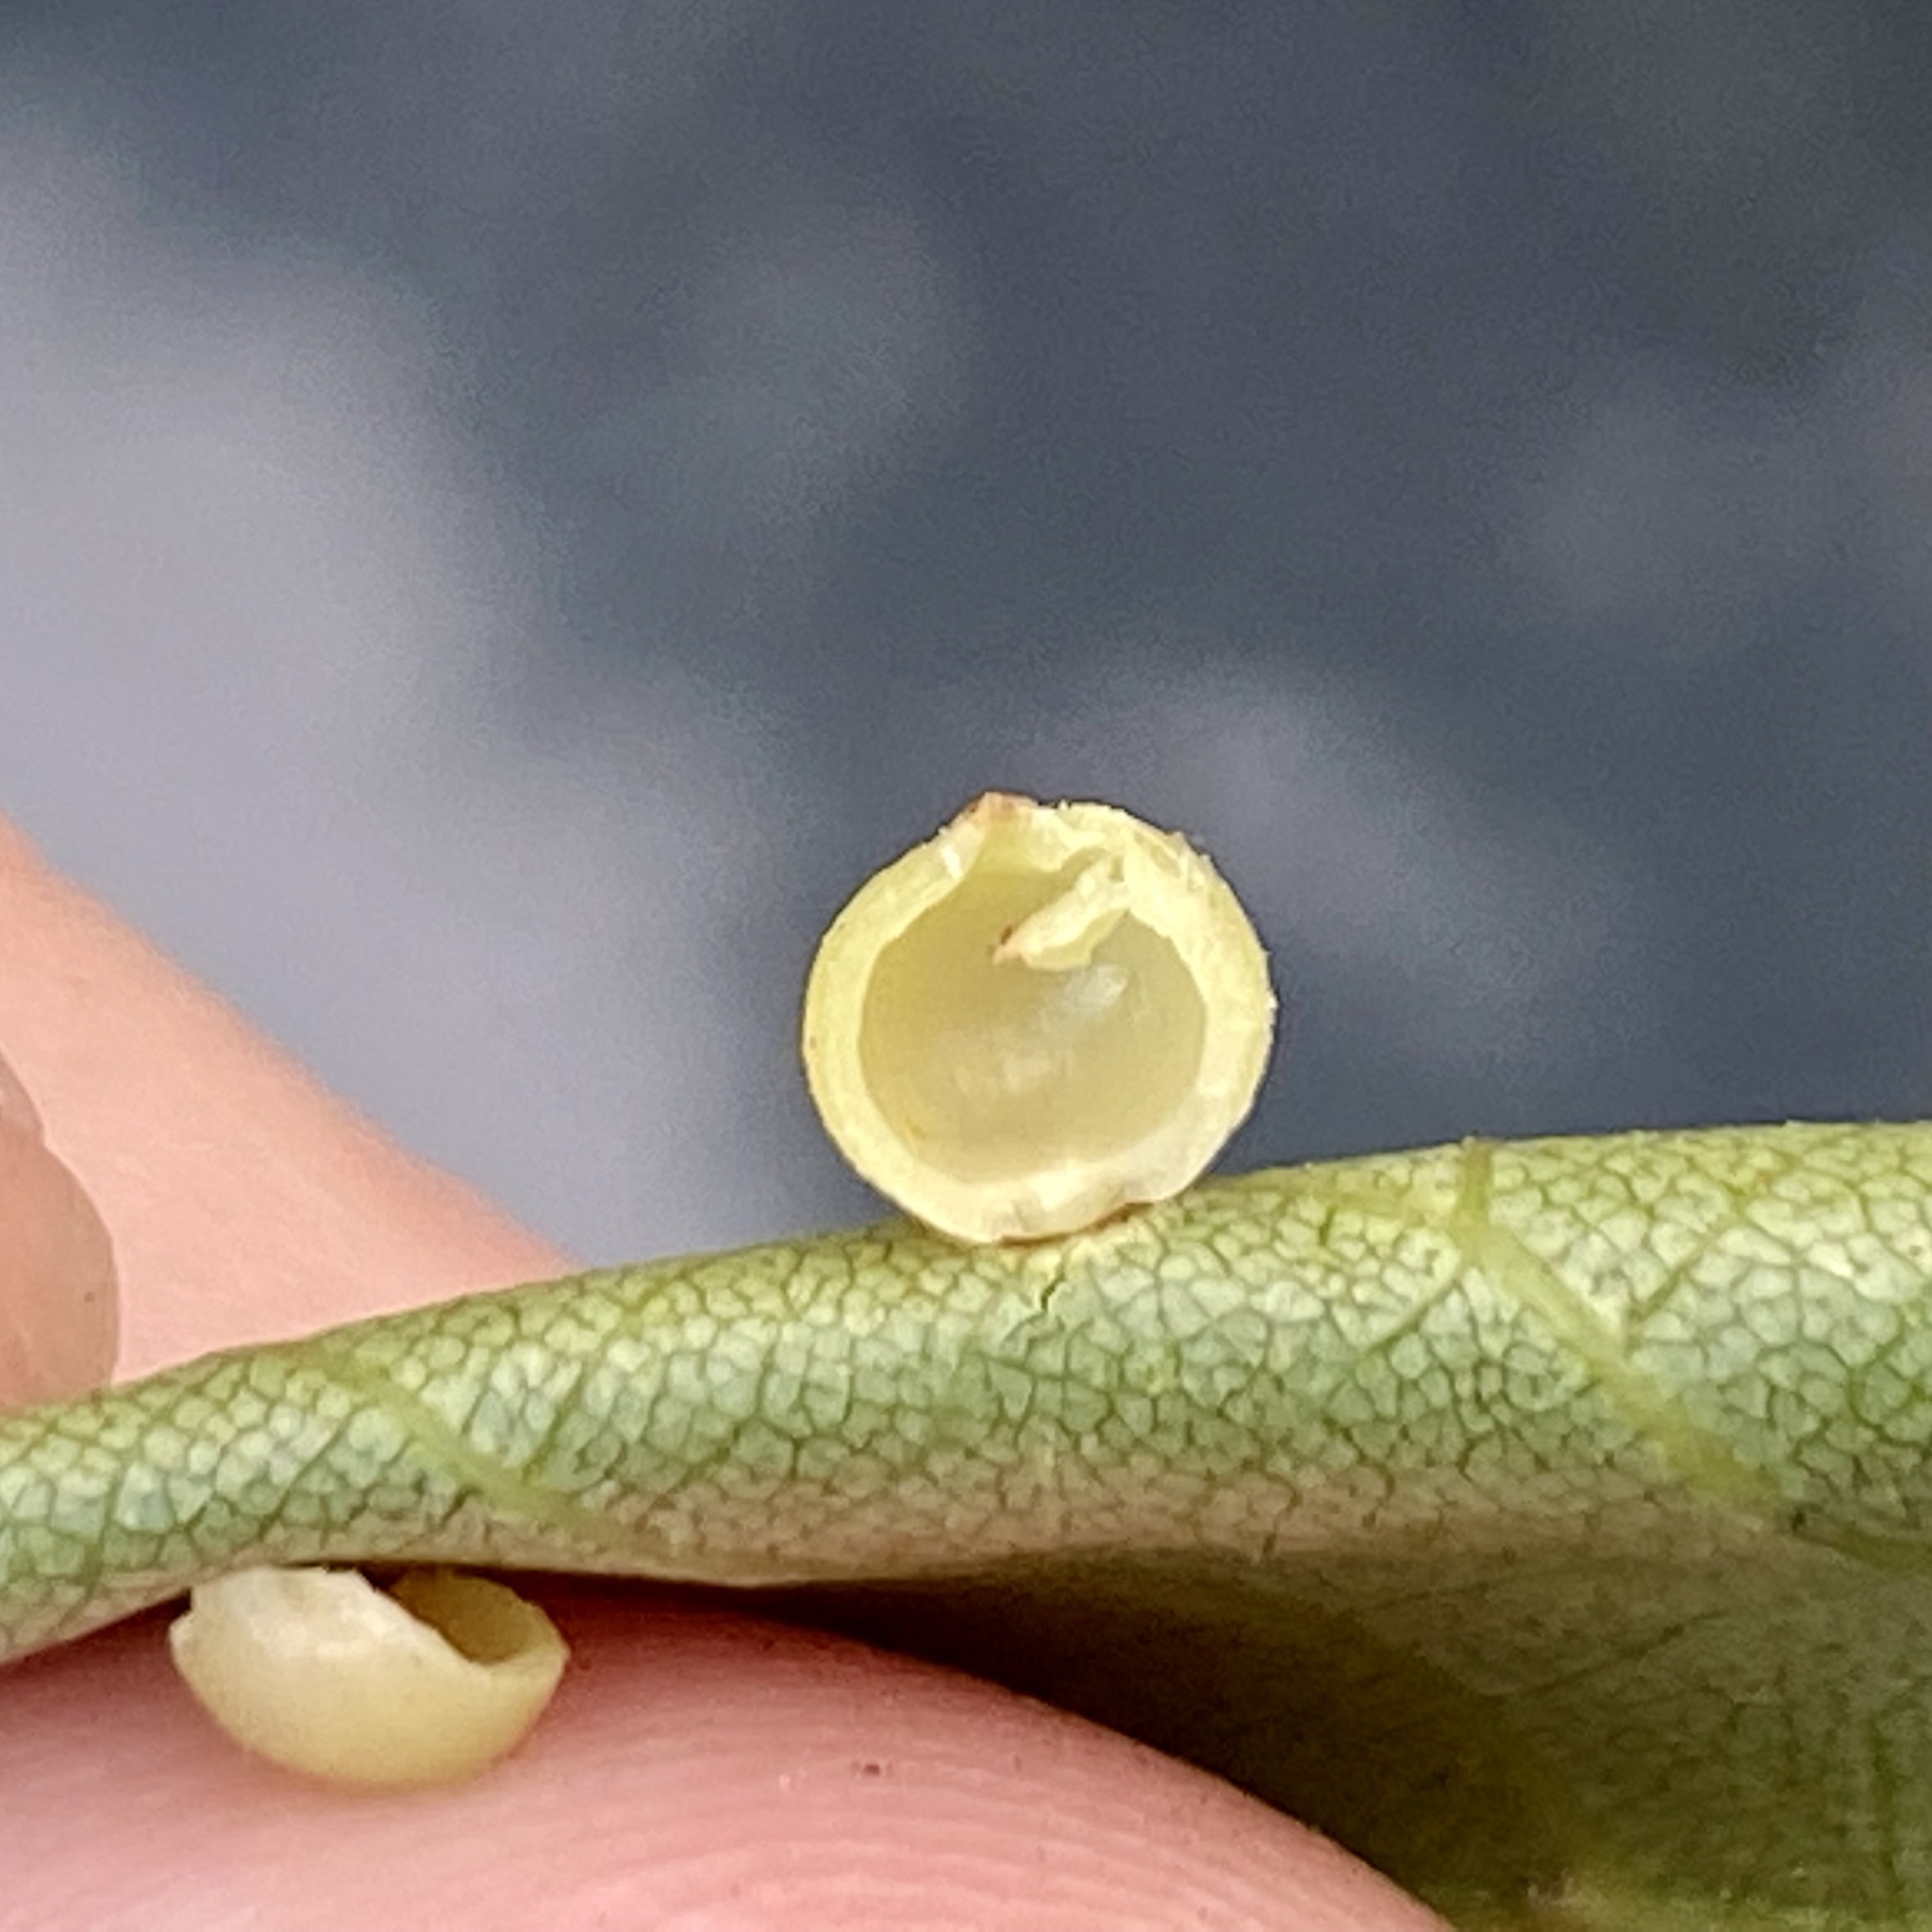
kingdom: Animalia
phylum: Arthropoda
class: Insecta
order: Diptera
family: Cecidomyiidae
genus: Caryomyia
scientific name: Caryomyia caryae
